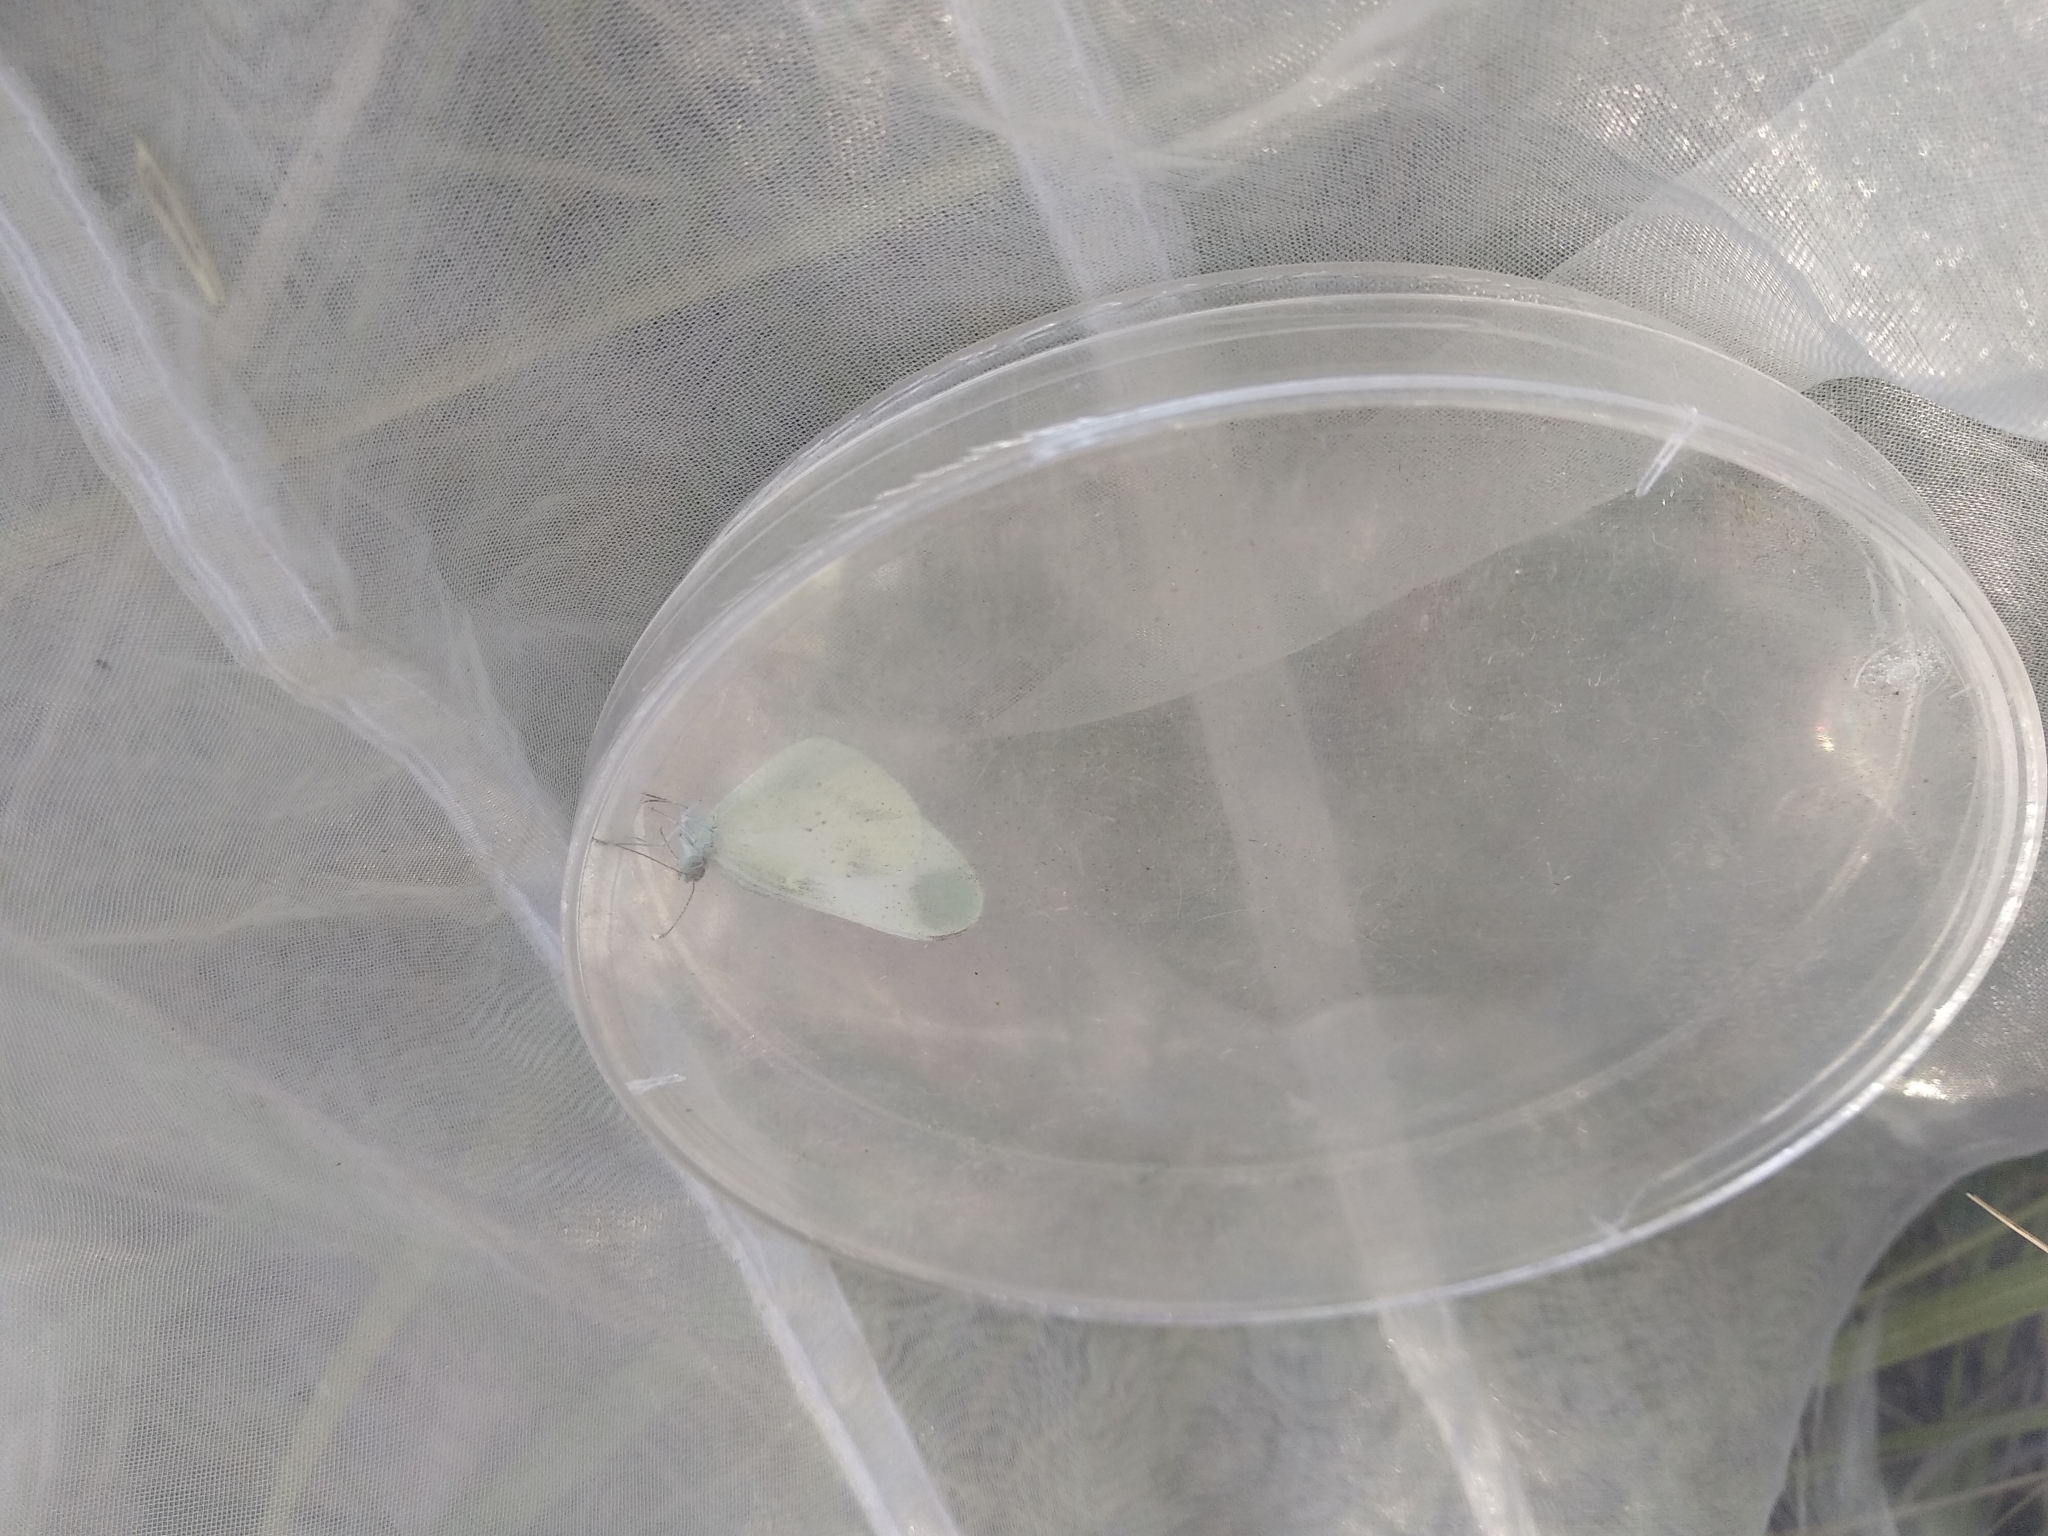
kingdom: Animalia
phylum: Arthropoda
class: Insecta
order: Lepidoptera
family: Pieridae
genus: Leptidea
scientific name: Leptidea sinapis
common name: Wood white
